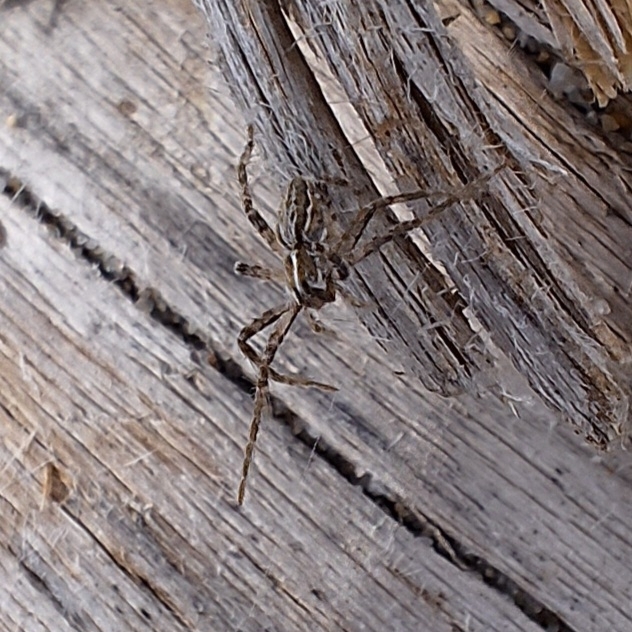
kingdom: Animalia
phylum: Arthropoda
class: Arachnida
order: Araneae
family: Pisauridae
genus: Pisaura
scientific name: Pisaura
